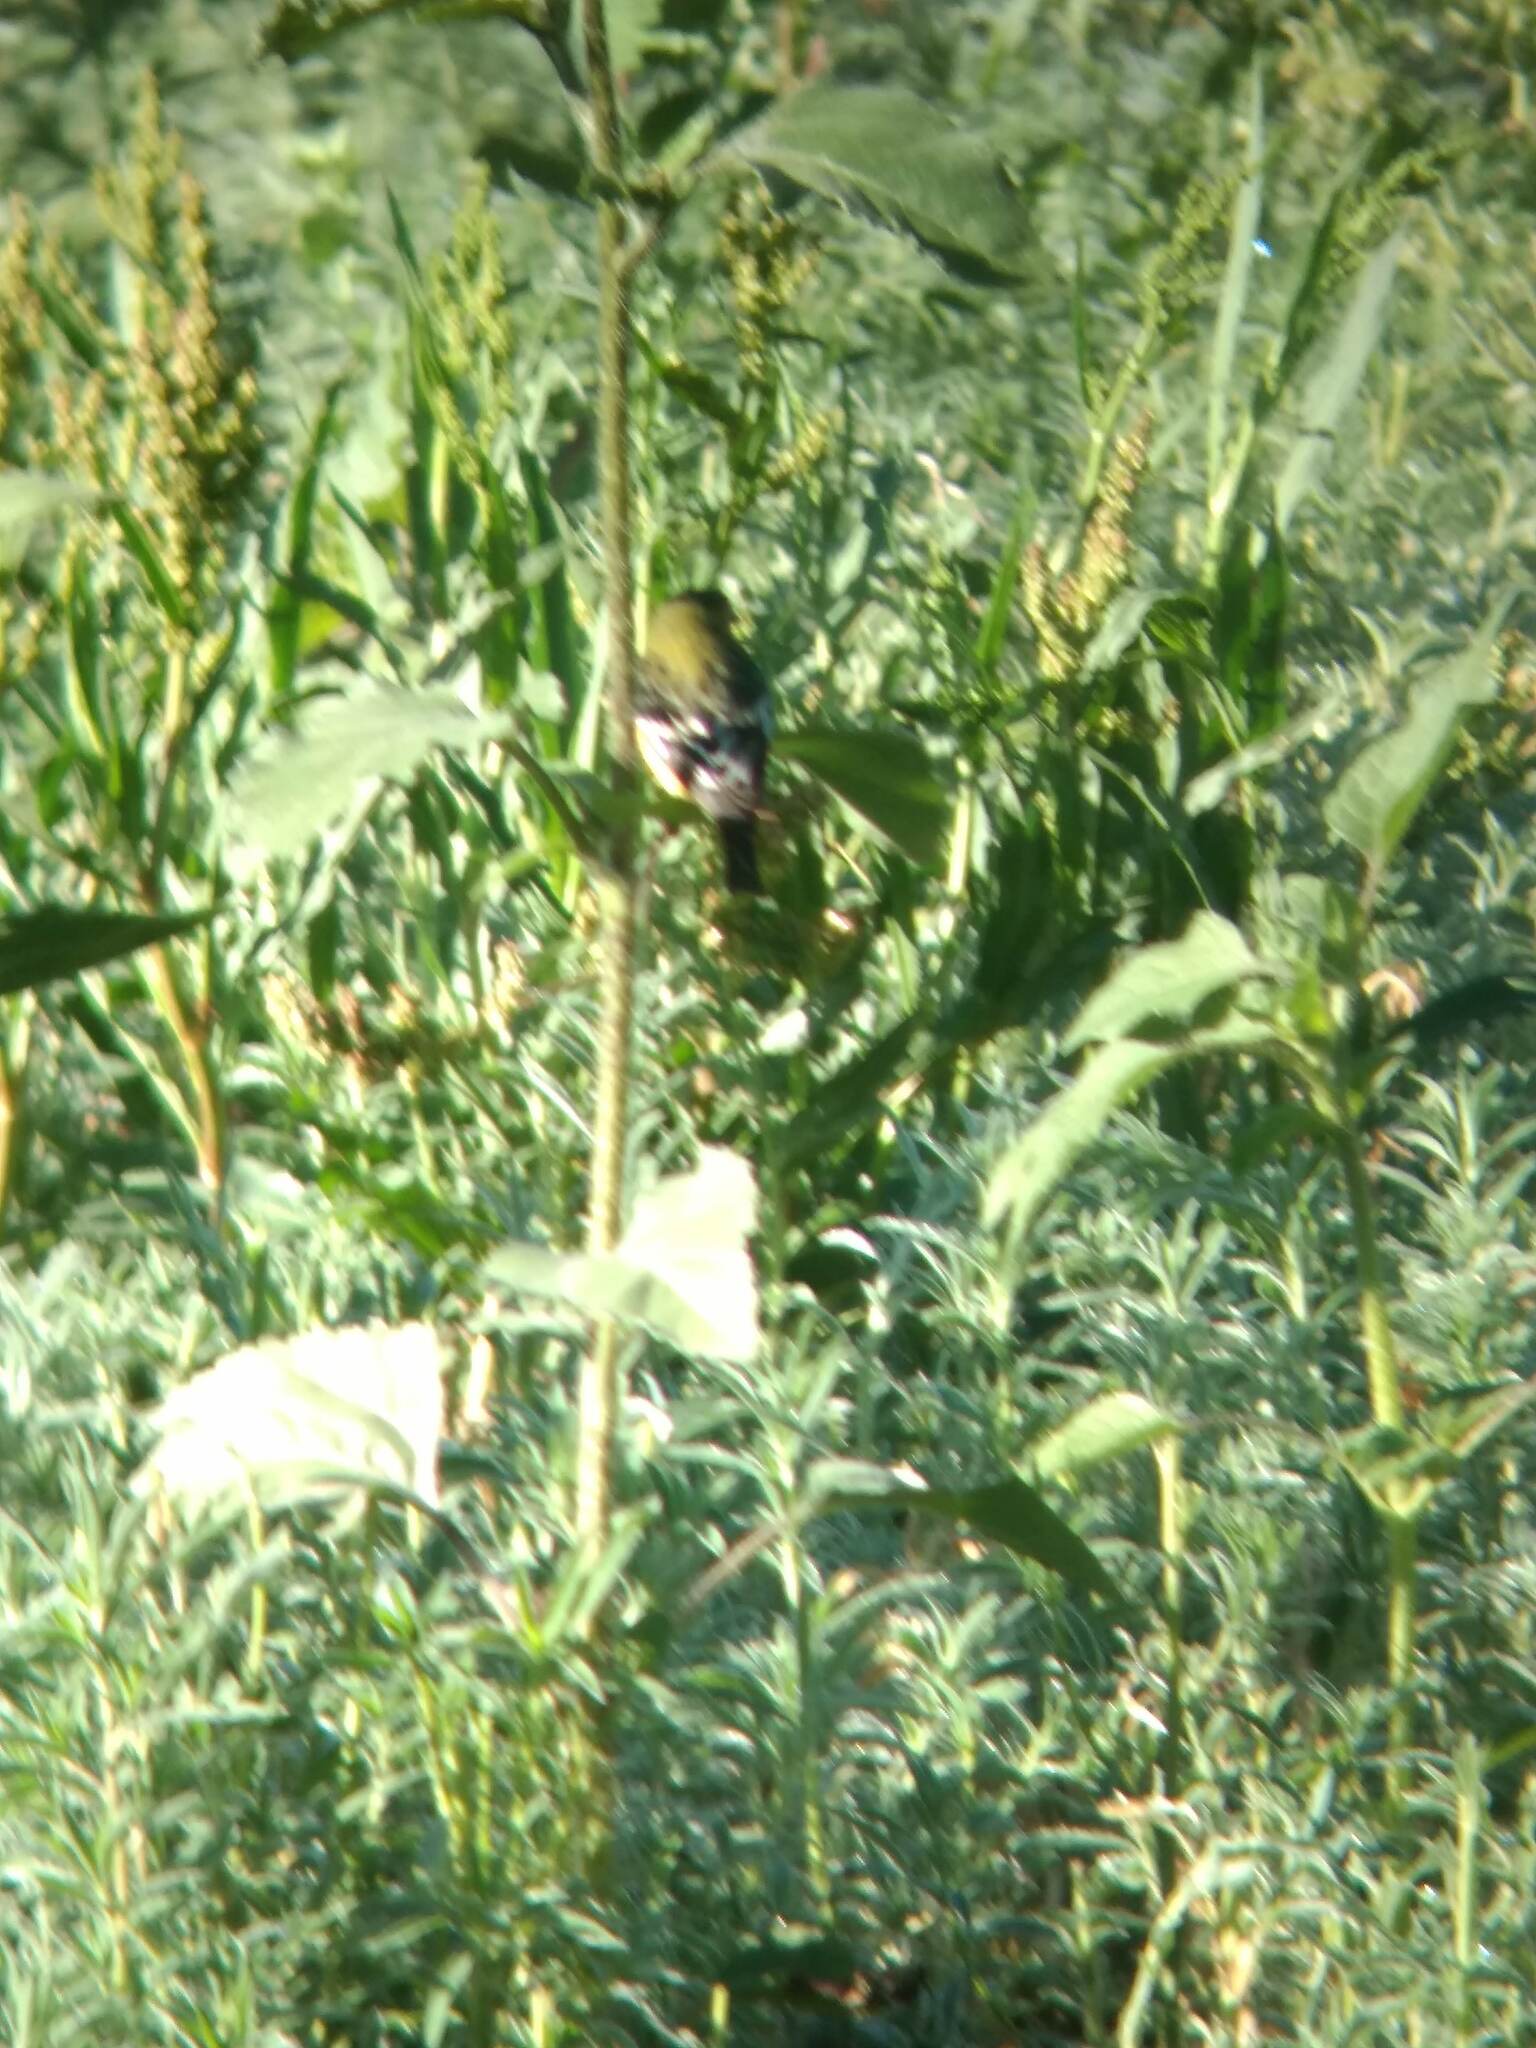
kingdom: Animalia
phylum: Chordata
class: Aves
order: Passeriformes
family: Fringillidae
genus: Spinus
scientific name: Spinus psaltria
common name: Lesser goldfinch
